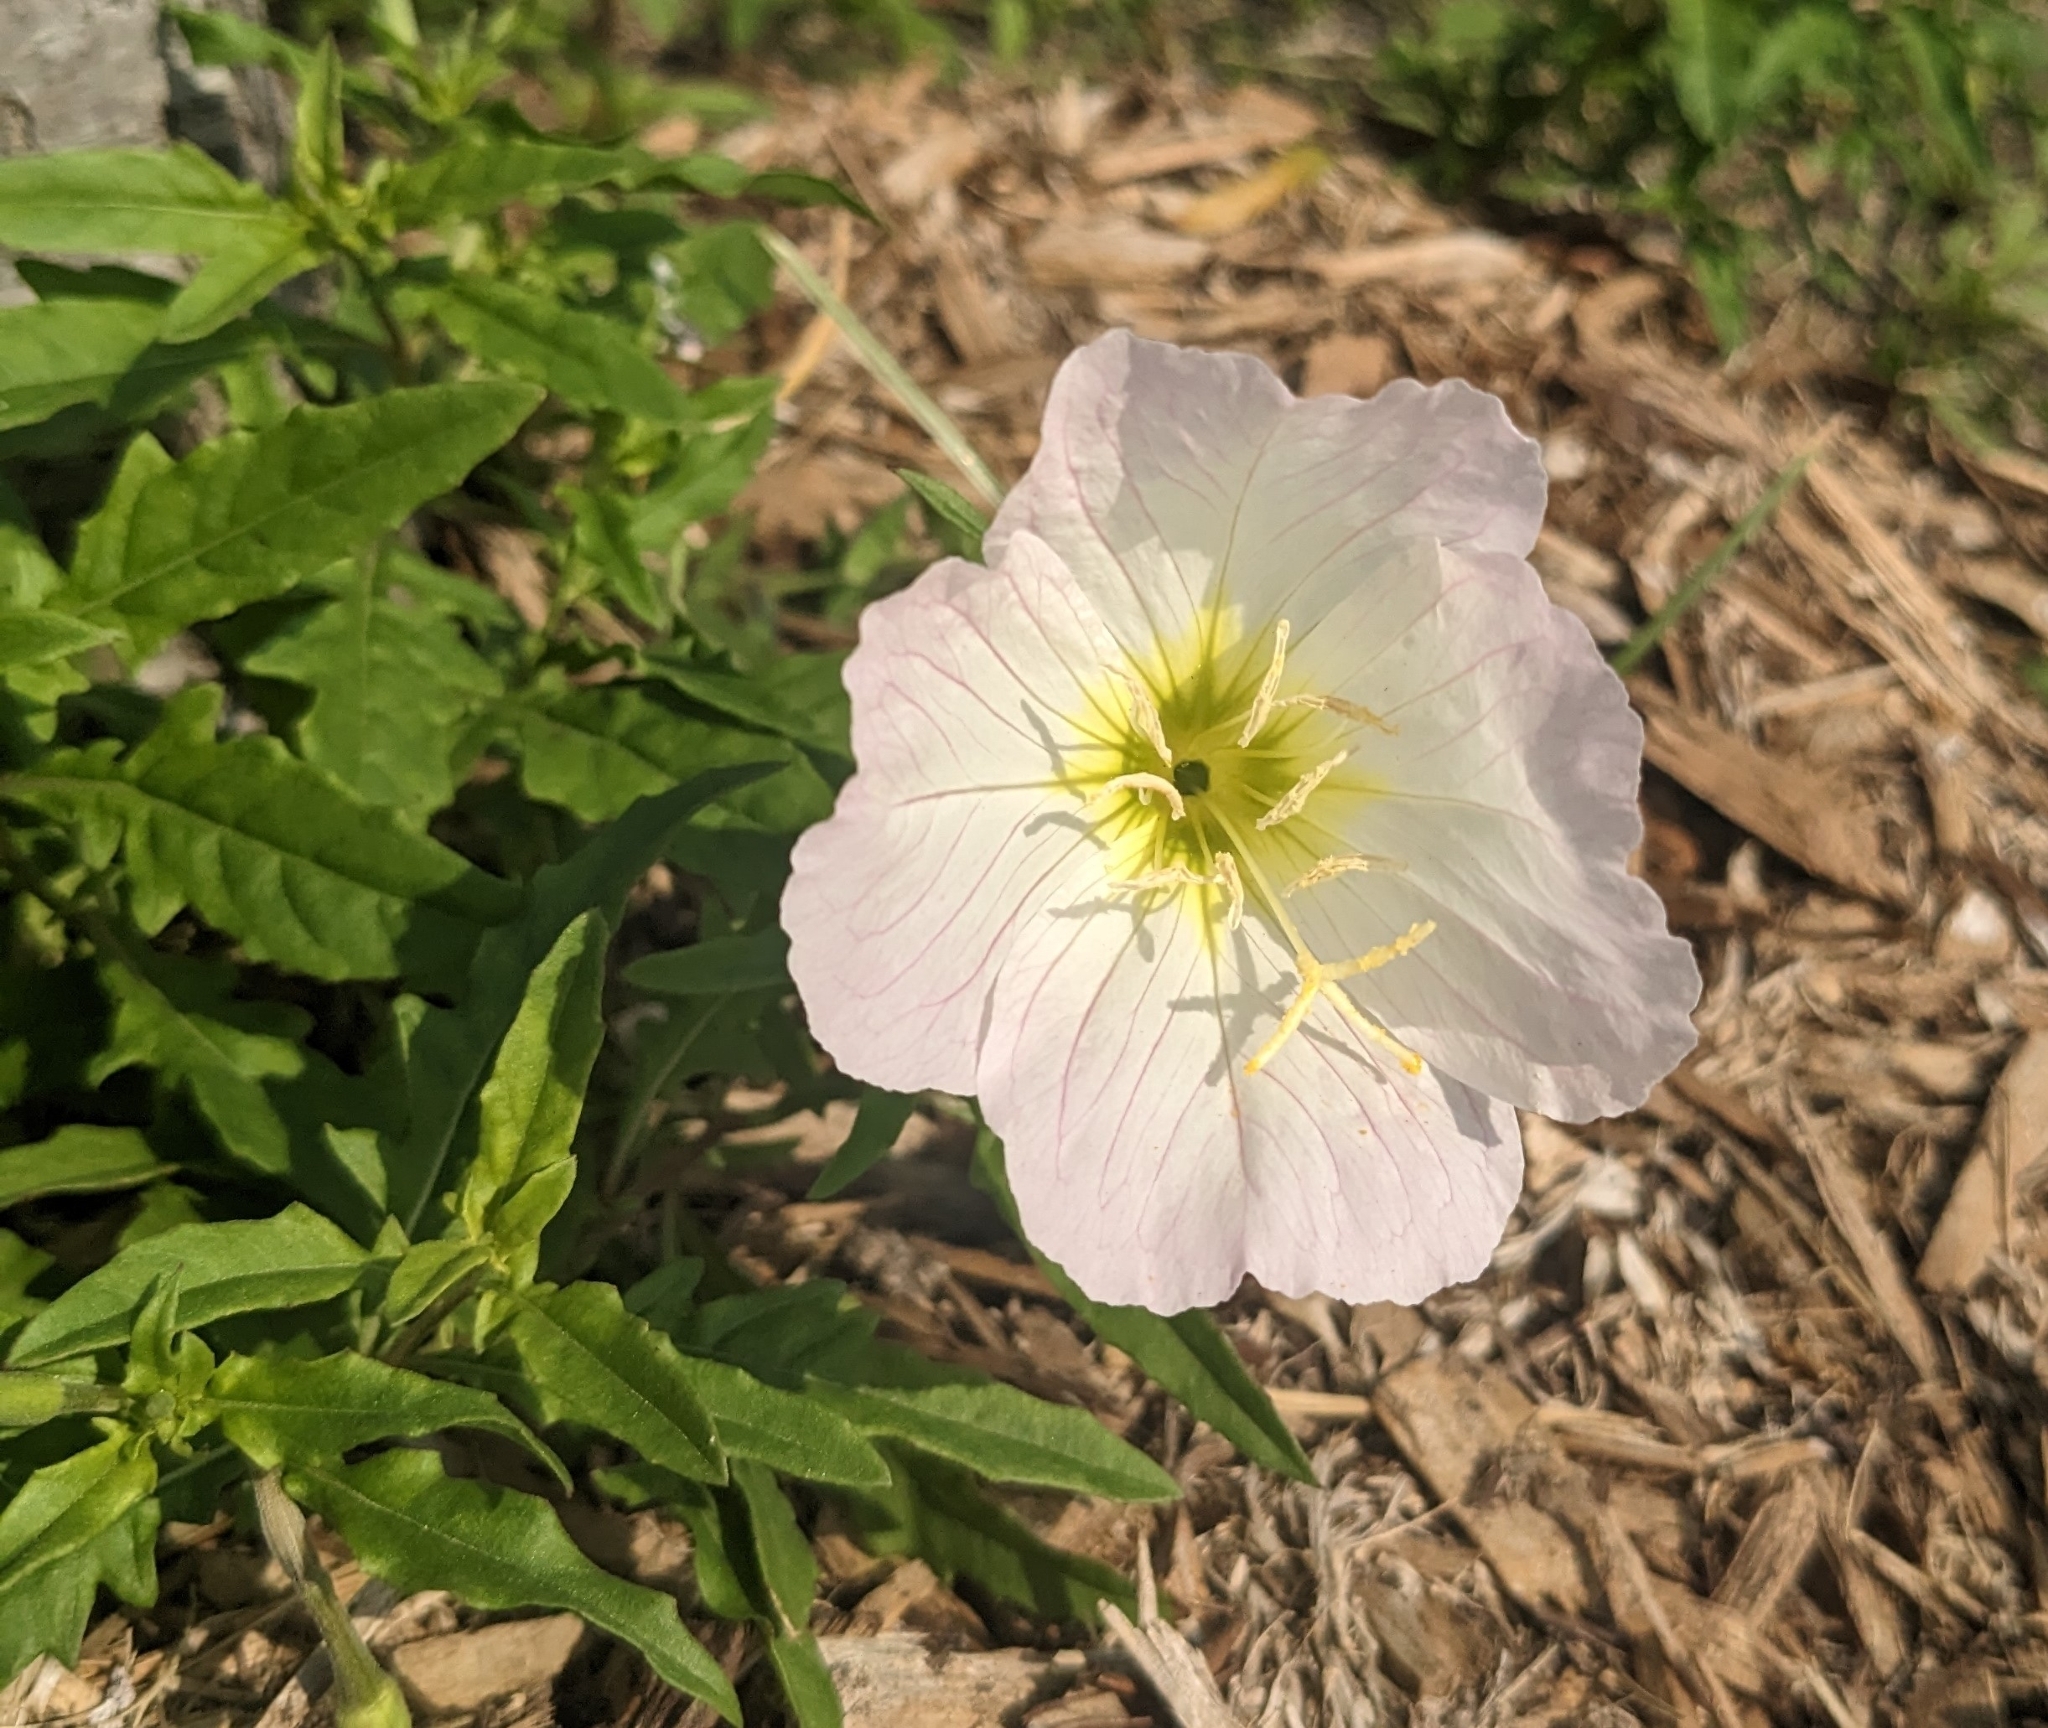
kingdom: Plantae
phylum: Tracheophyta
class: Magnoliopsida
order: Myrtales
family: Onagraceae
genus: Oenothera
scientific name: Oenothera speciosa
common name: White evening-primrose
